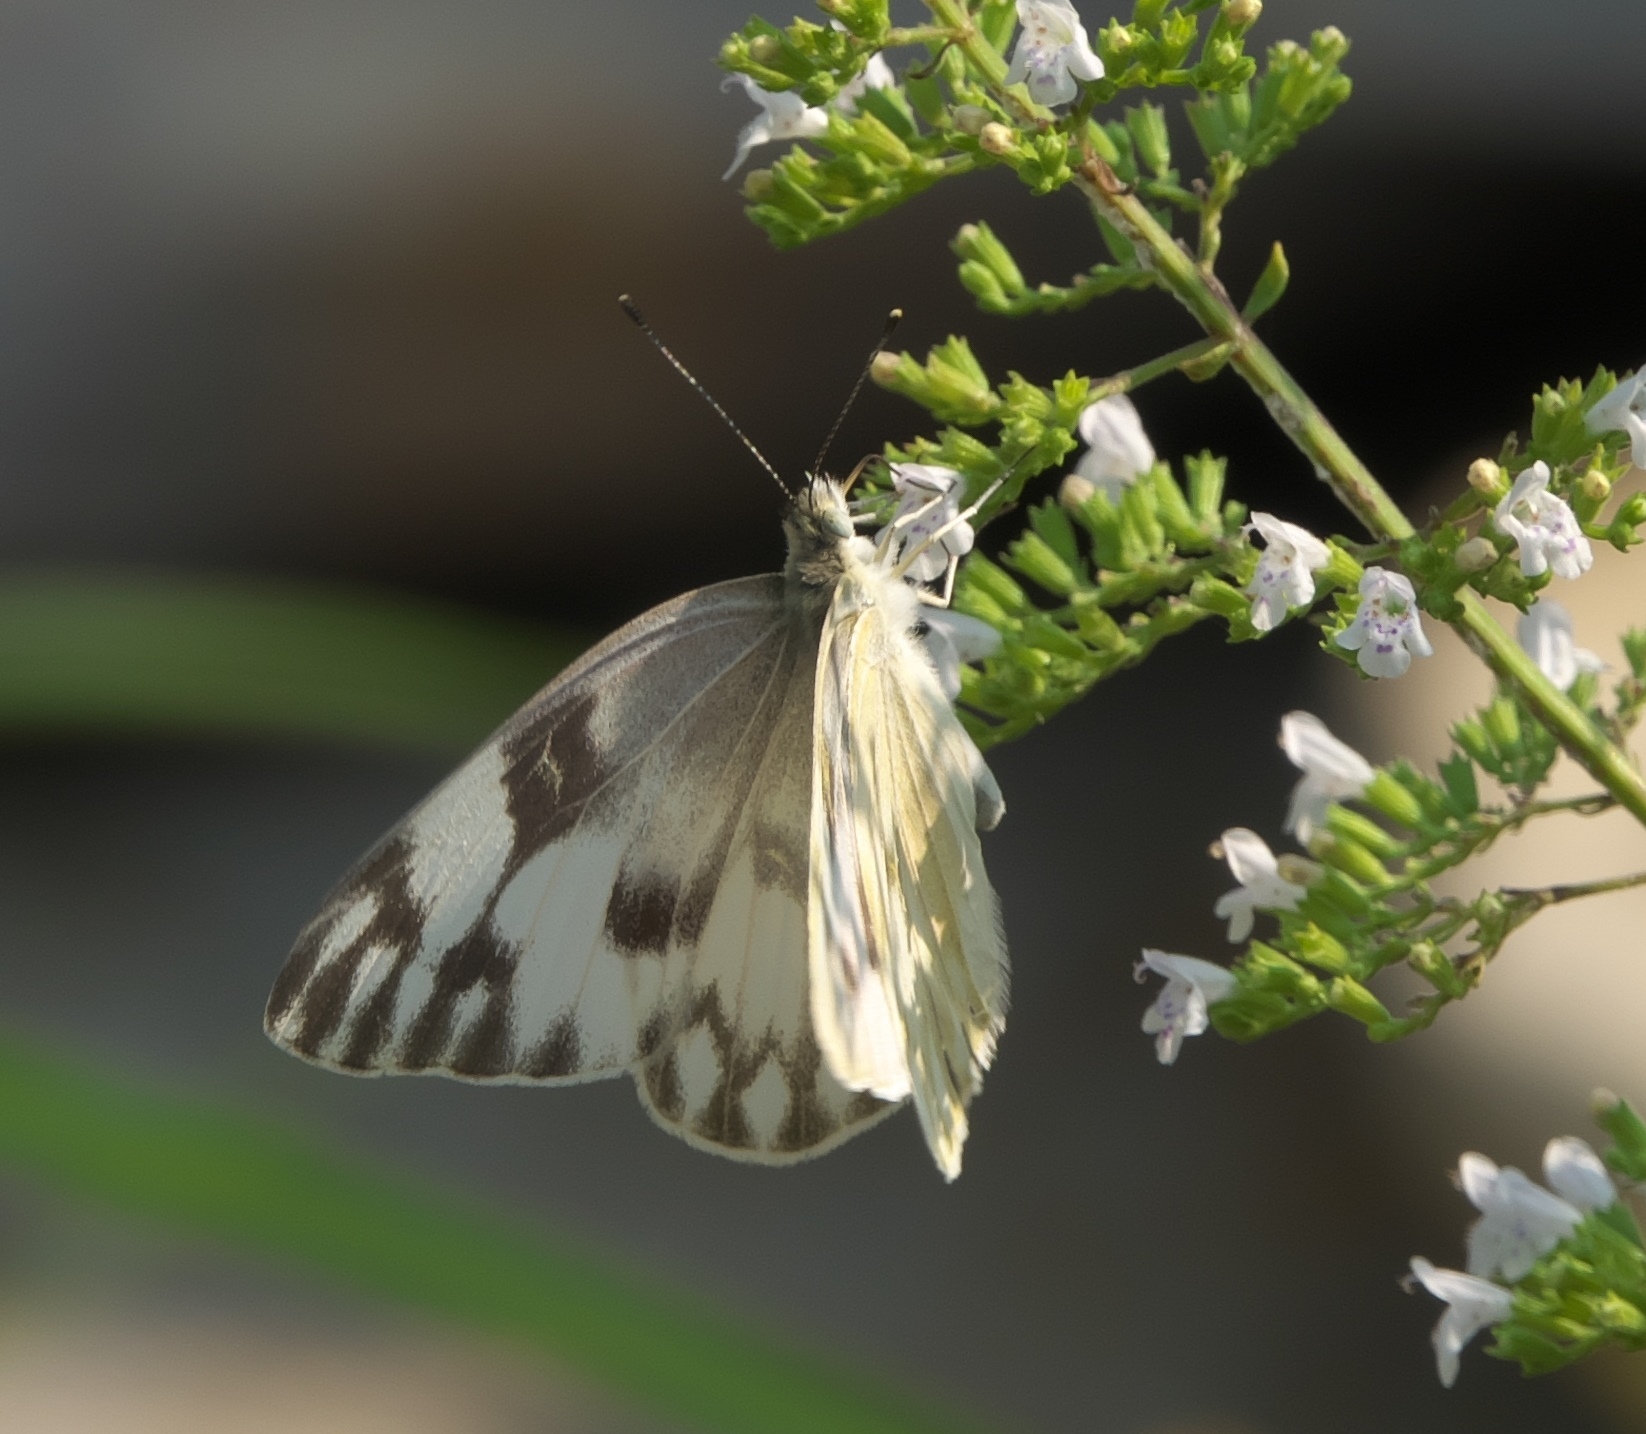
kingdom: Animalia
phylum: Arthropoda
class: Insecta
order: Lepidoptera
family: Pieridae
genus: Pontia
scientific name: Pontia protodice
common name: Checkered white
